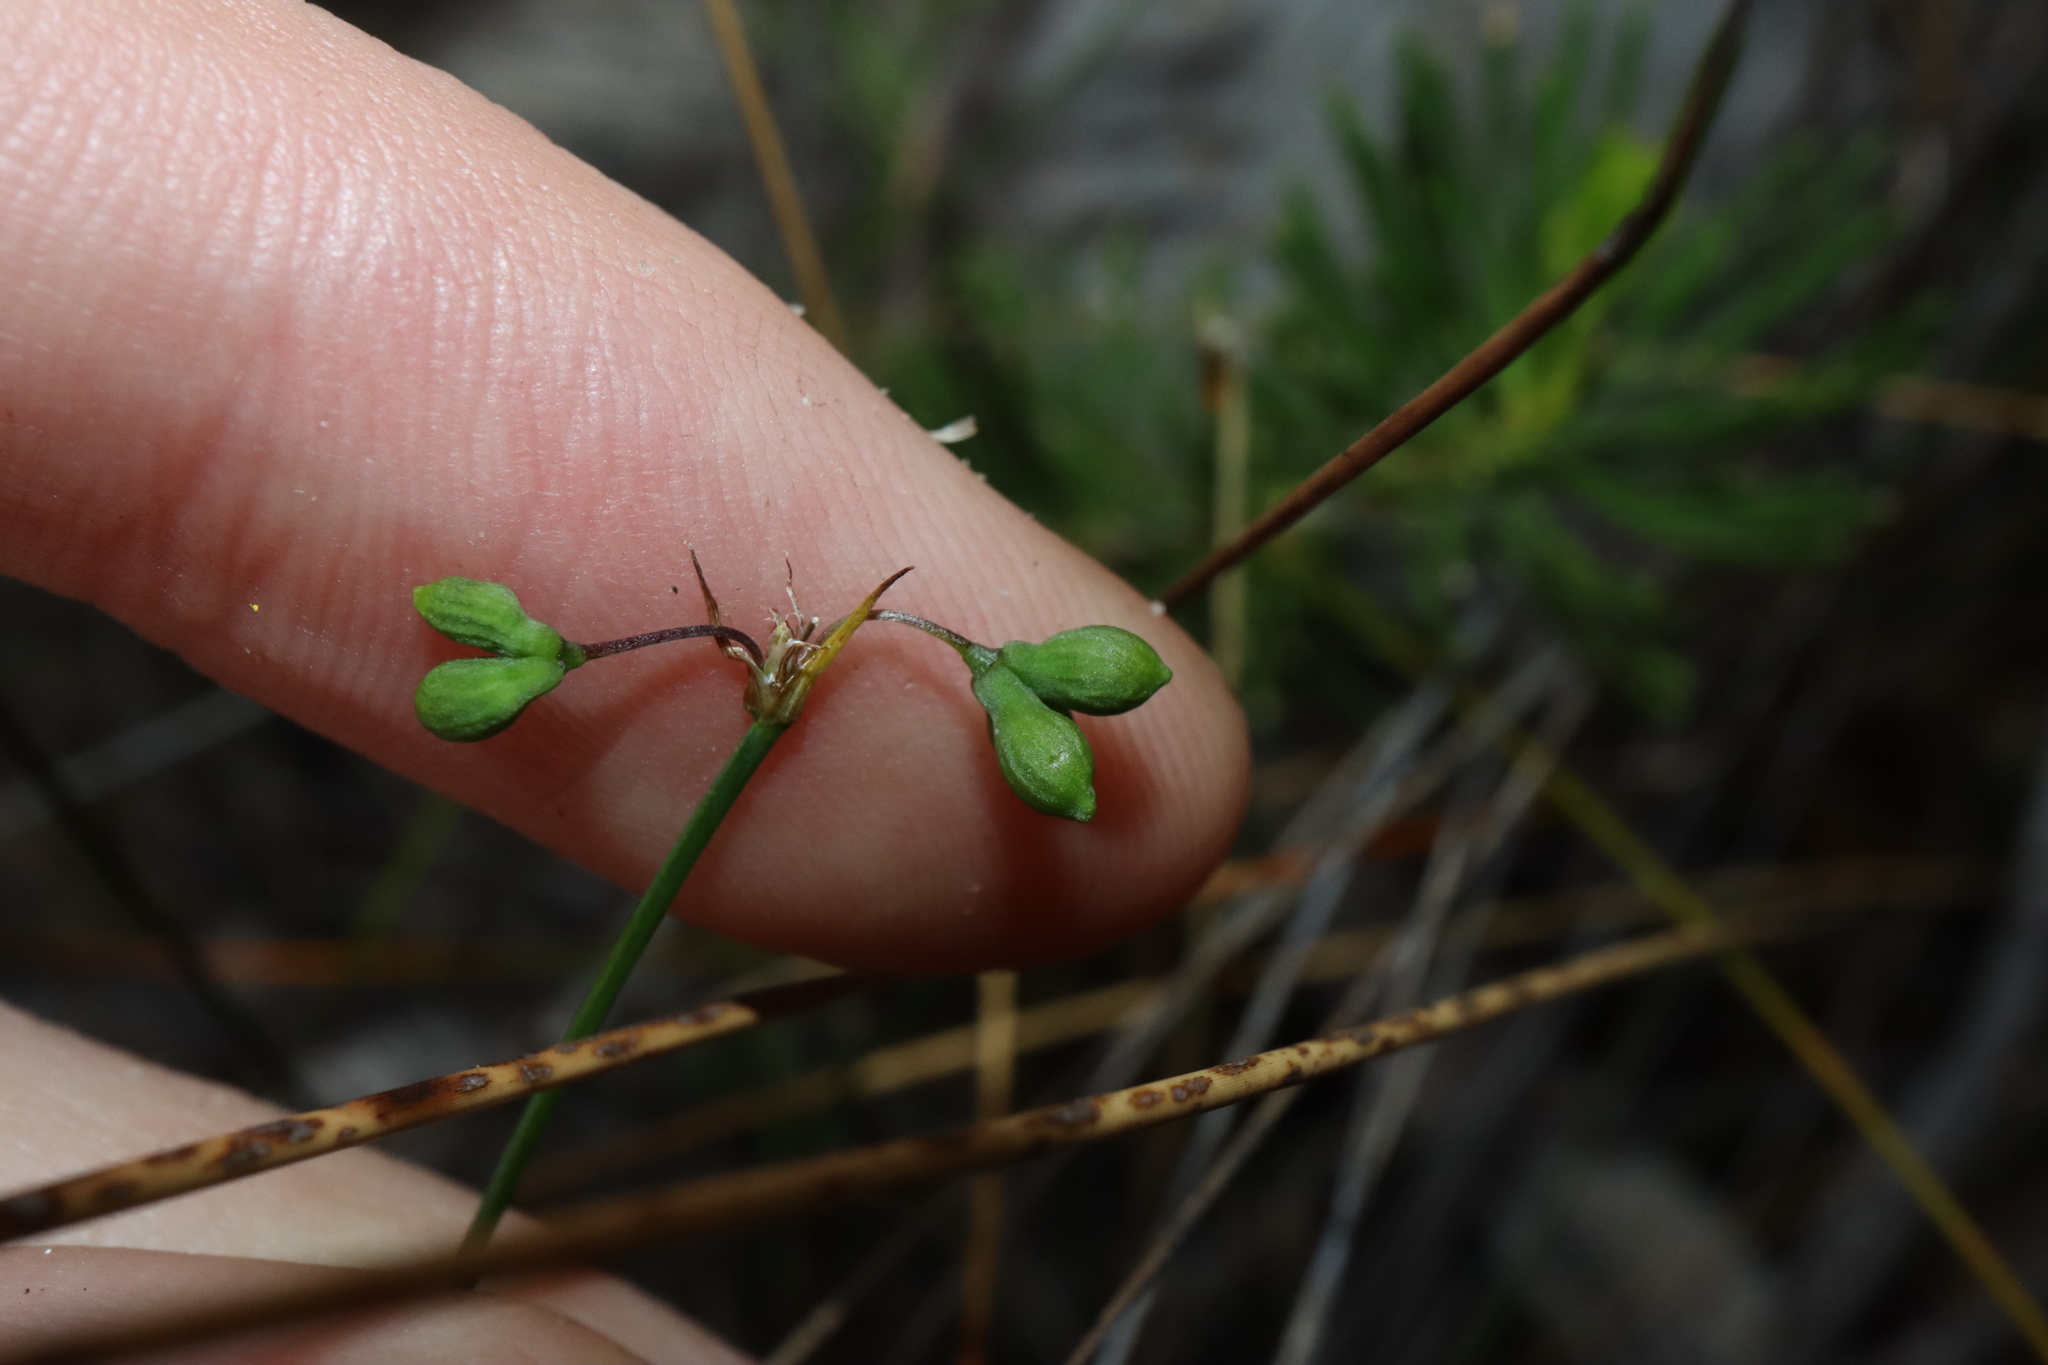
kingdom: Plantae
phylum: Tracheophyta
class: Liliopsida
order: Asparagales
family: Asphodelaceae
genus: Tricoryne
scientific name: Tricoryne tenella
